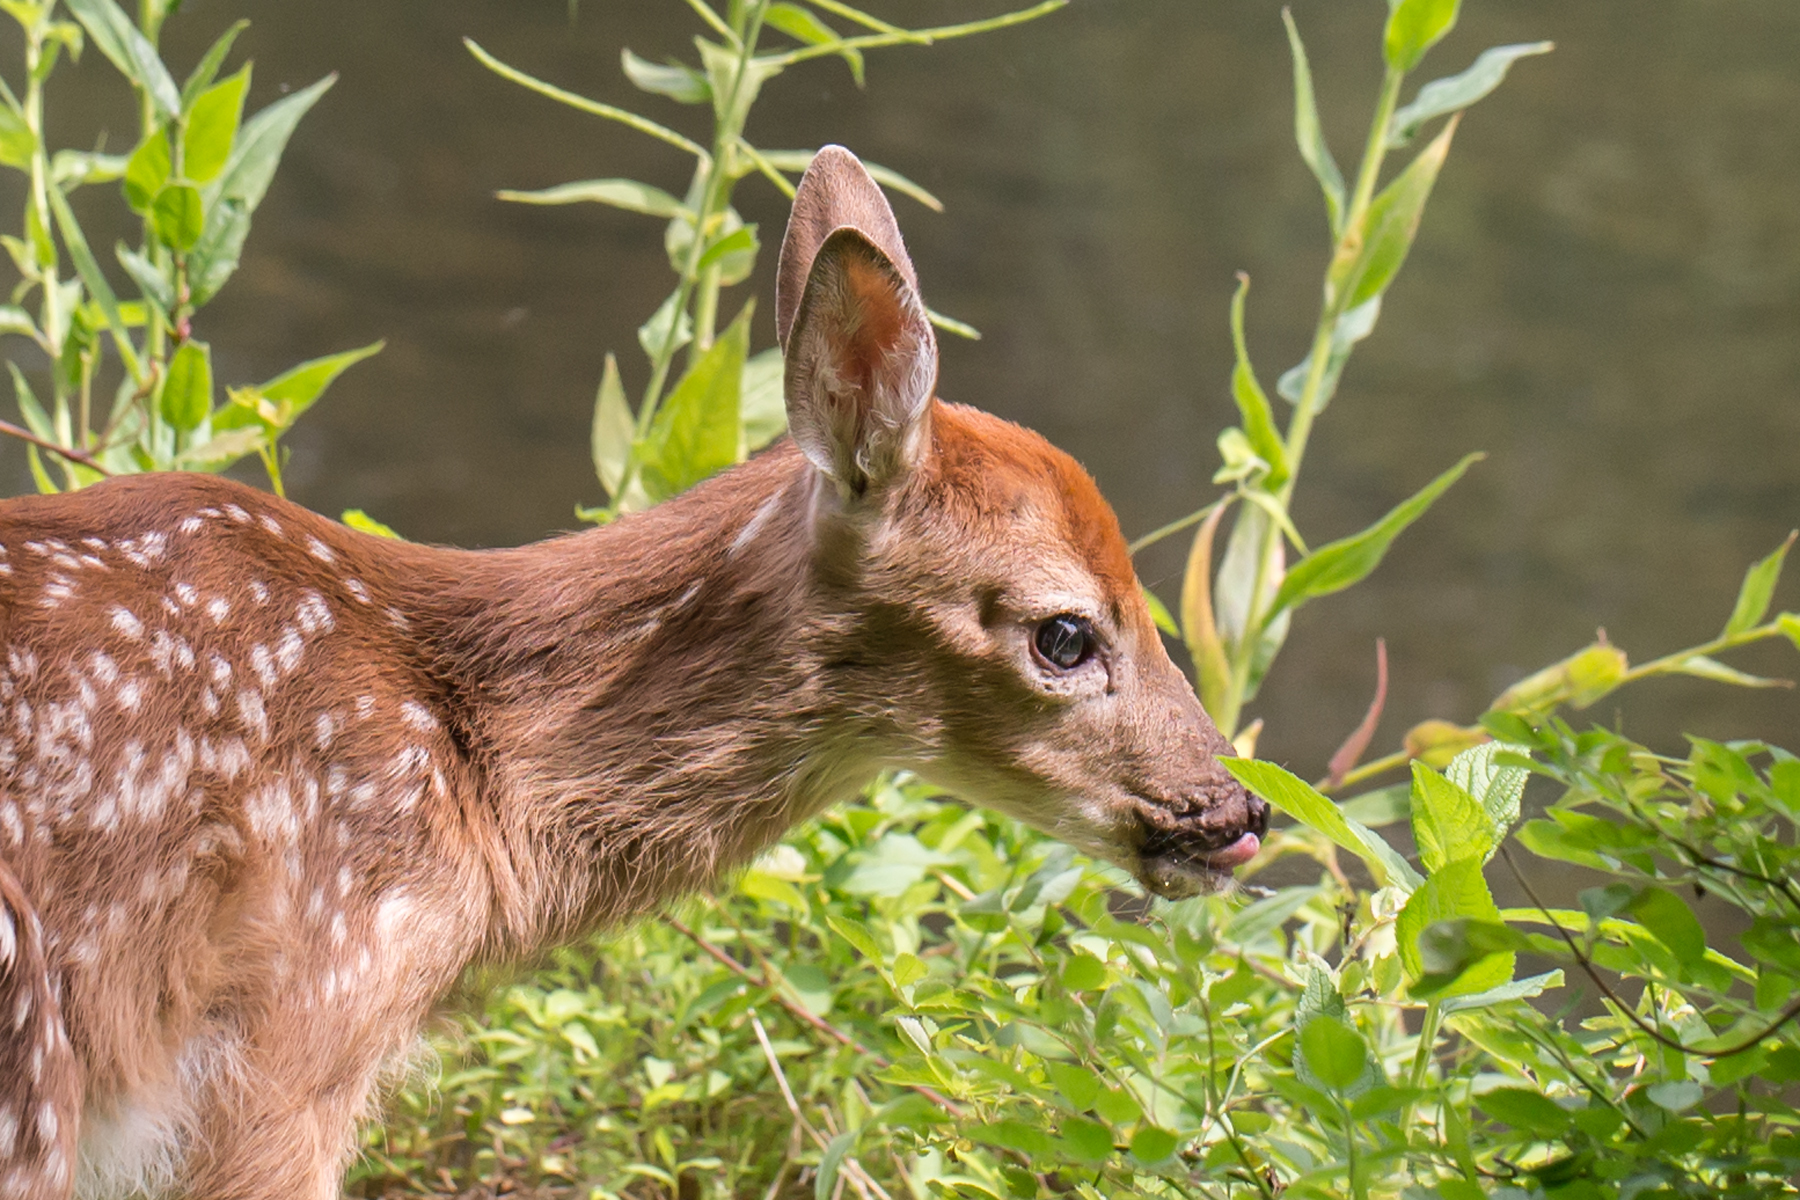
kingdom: Animalia
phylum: Chordata
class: Mammalia
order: Artiodactyla
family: Cervidae
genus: Odocoileus
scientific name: Odocoileus virginianus
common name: White-tailed deer
